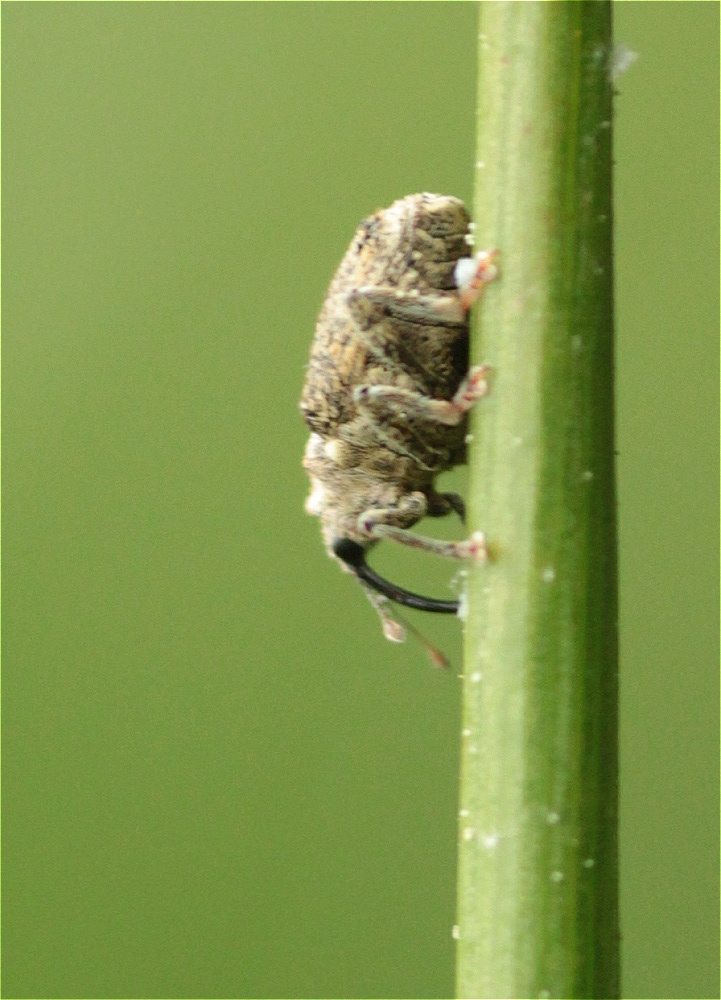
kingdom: Animalia
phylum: Arthropoda
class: Insecta
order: Coleoptera
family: Curculionidae
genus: Ceutorhynchus
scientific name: Ceutorhynchus pallidactylus
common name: Cabbage stem weavil
